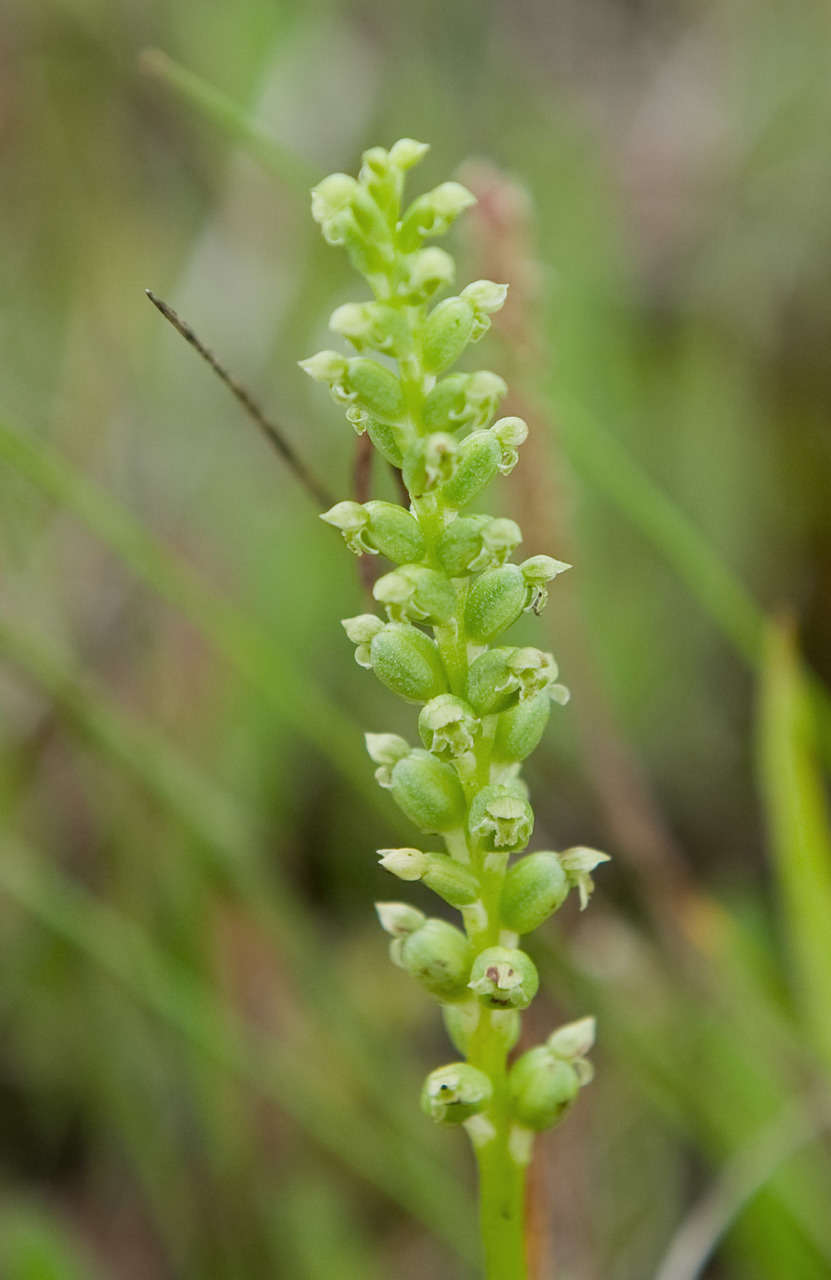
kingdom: Plantae
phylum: Tracheophyta
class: Liliopsida
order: Asparagales
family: Orchidaceae
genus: Microtis
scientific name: Microtis unifolia
